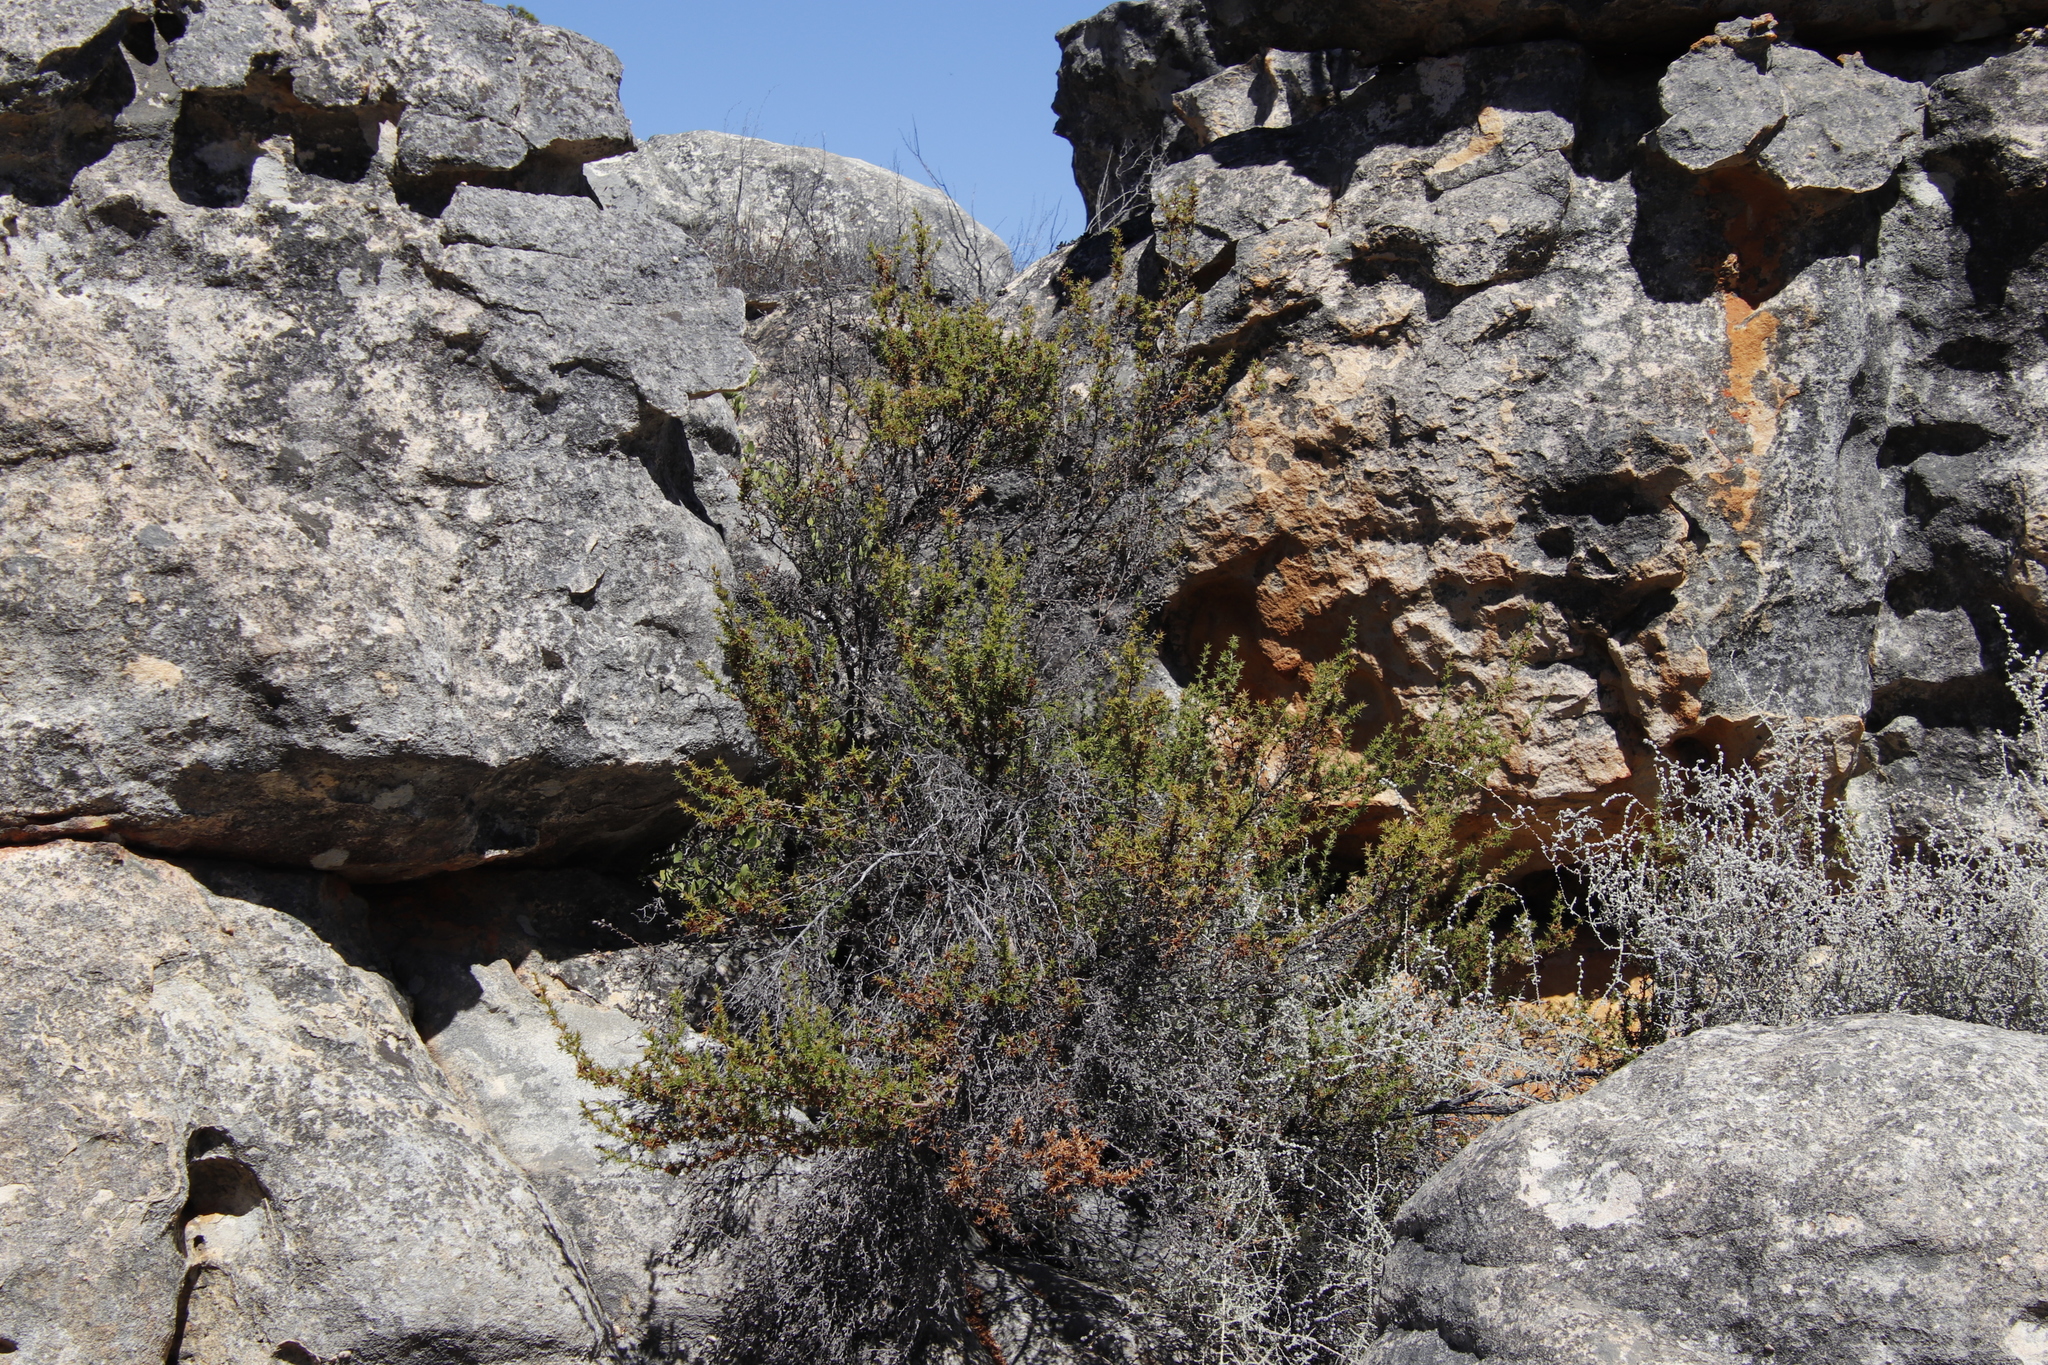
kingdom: Plantae
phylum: Tracheophyta
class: Magnoliopsida
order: Rosales
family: Rosaceae
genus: Cliffortia
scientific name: Cliffortia ruscifolia
